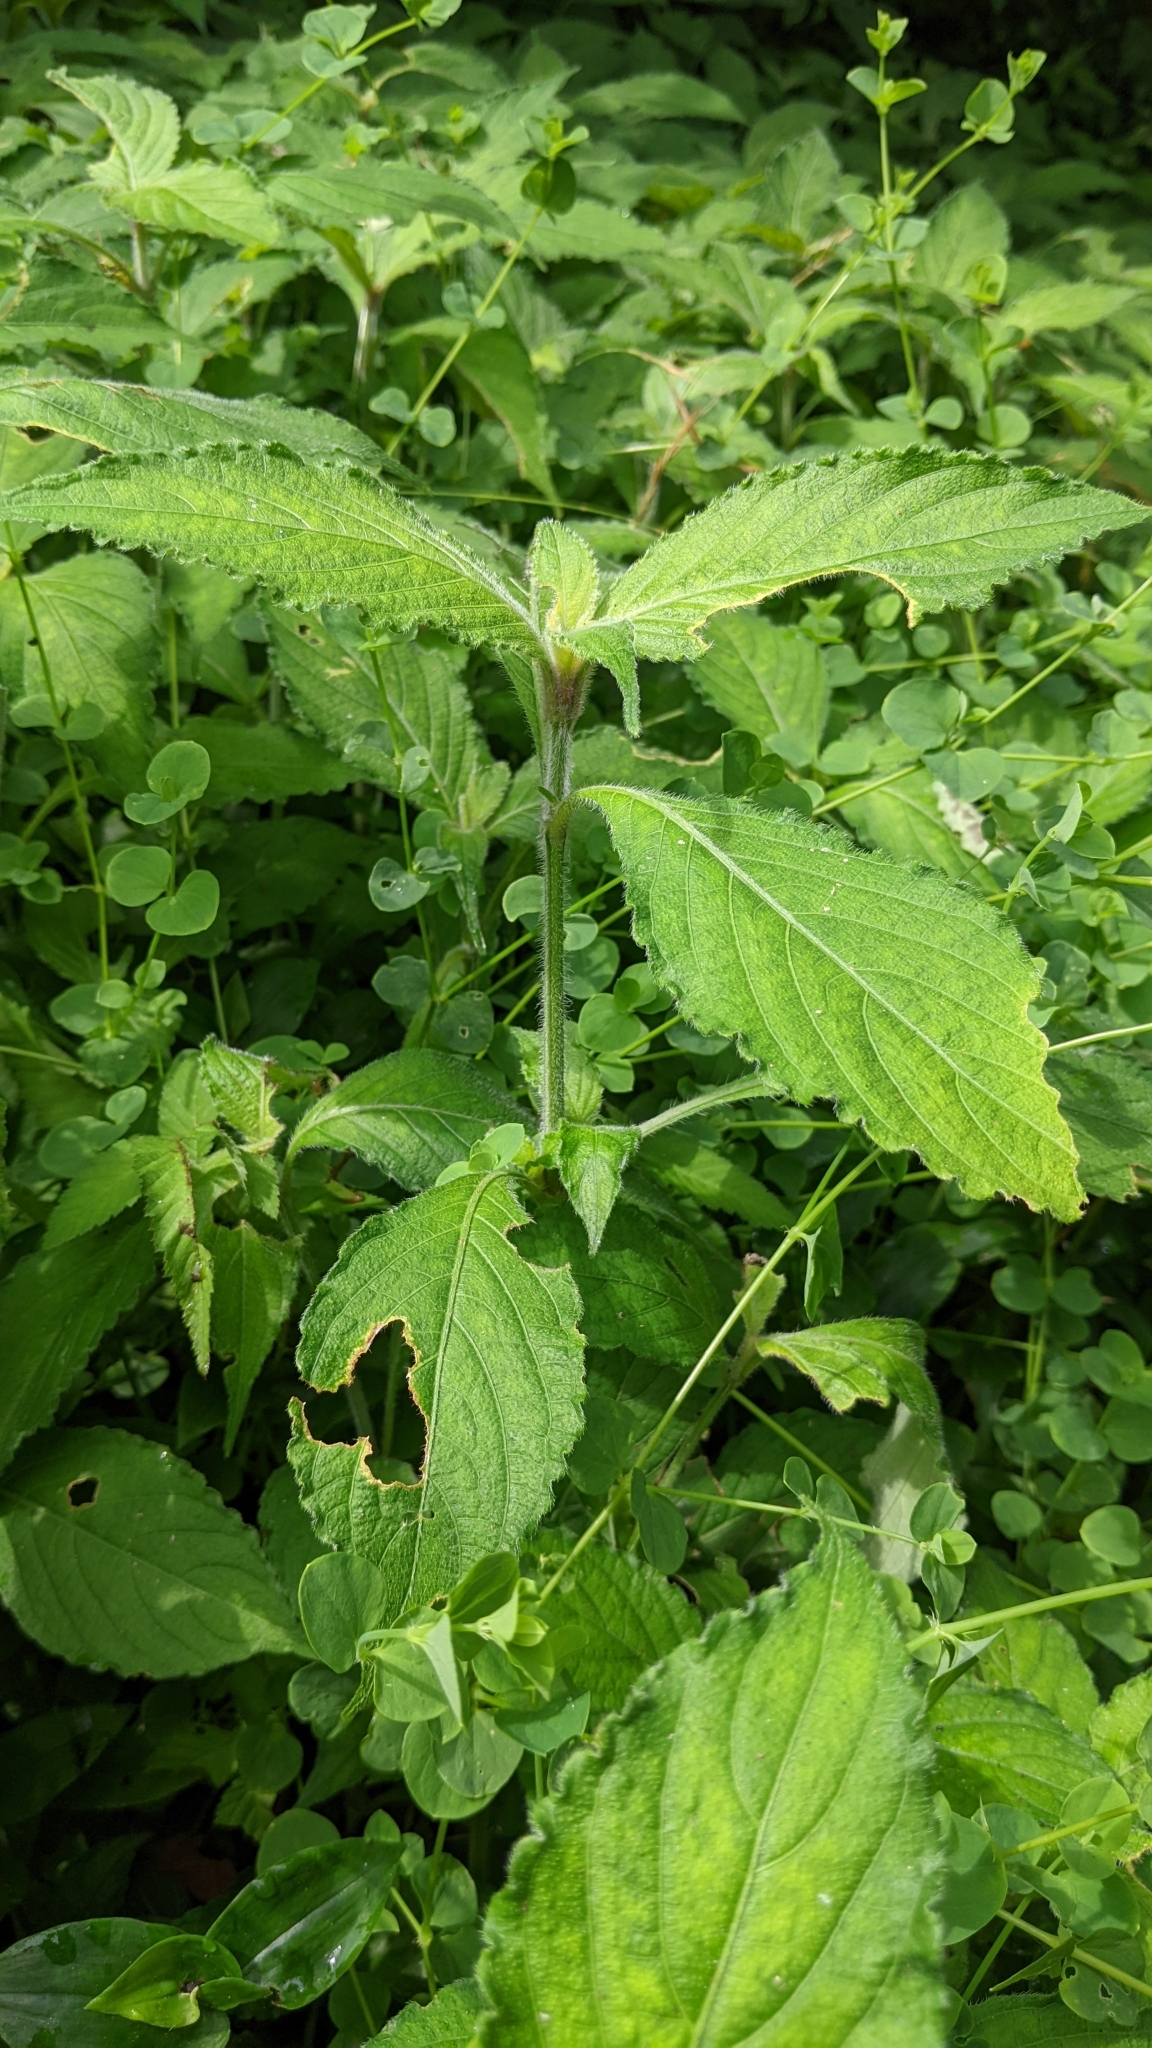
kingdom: Plantae
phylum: Tracheophyta
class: Magnoliopsida
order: Lamiales
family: Acanthaceae
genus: Strobilanthes
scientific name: Strobilanthes formosana
